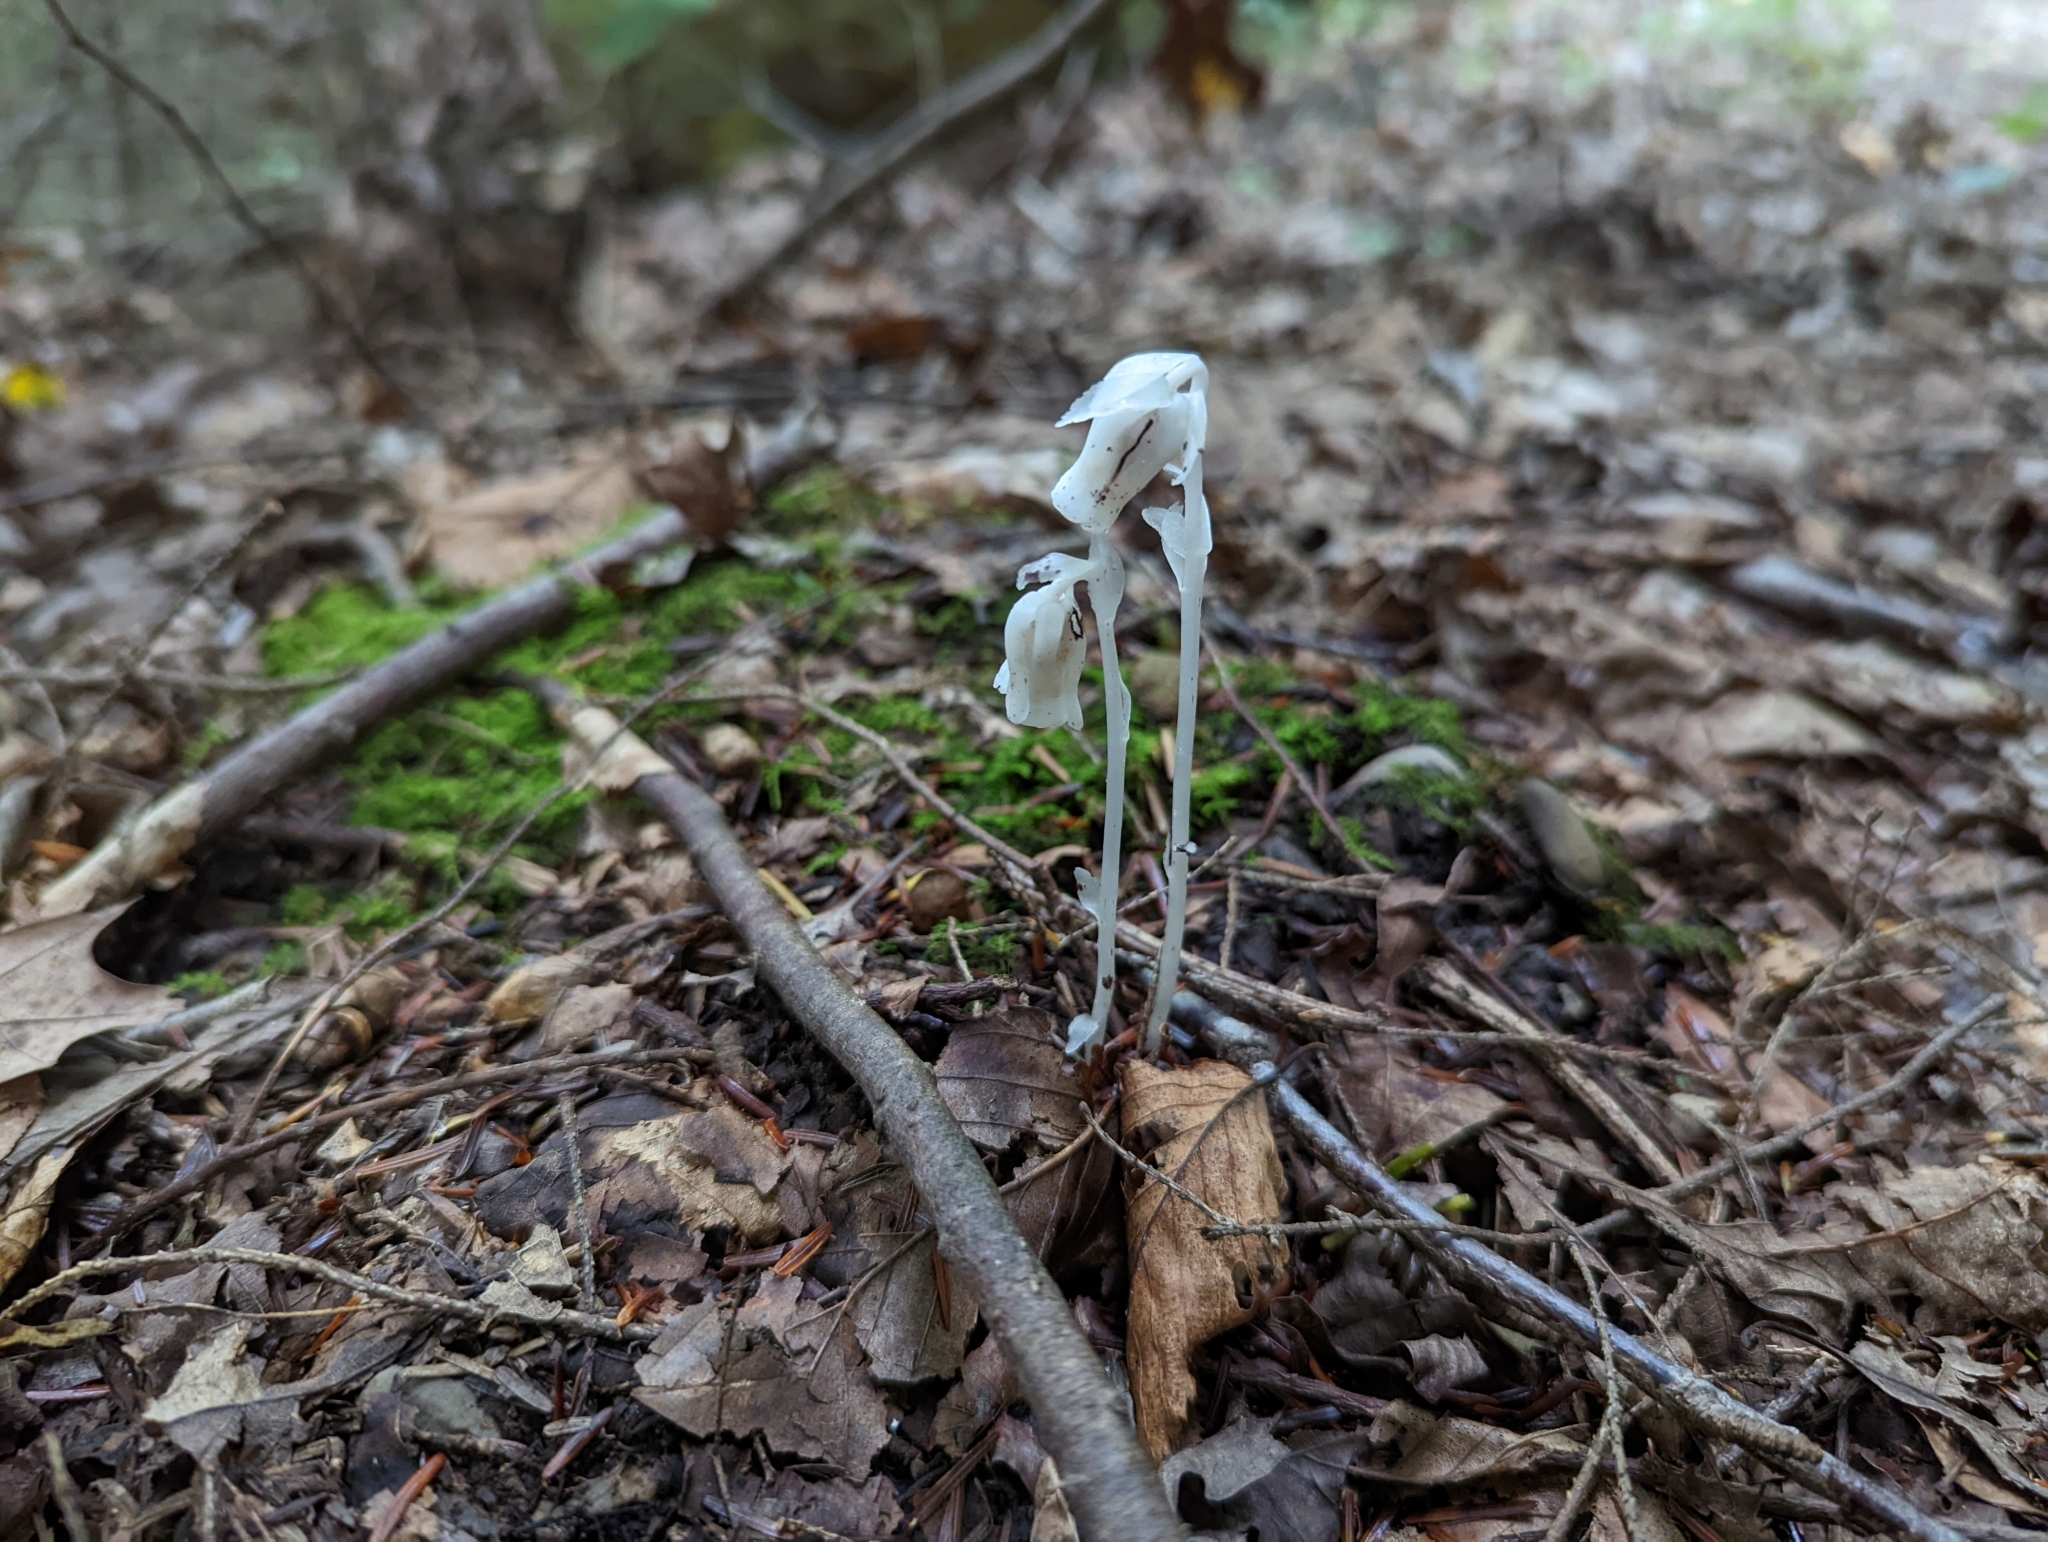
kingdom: Plantae
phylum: Tracheophyta
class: Magnoliopsida
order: Ericales
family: Ericaceae
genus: Monotropa
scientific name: Monotropa uniflora
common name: Convulsion root
